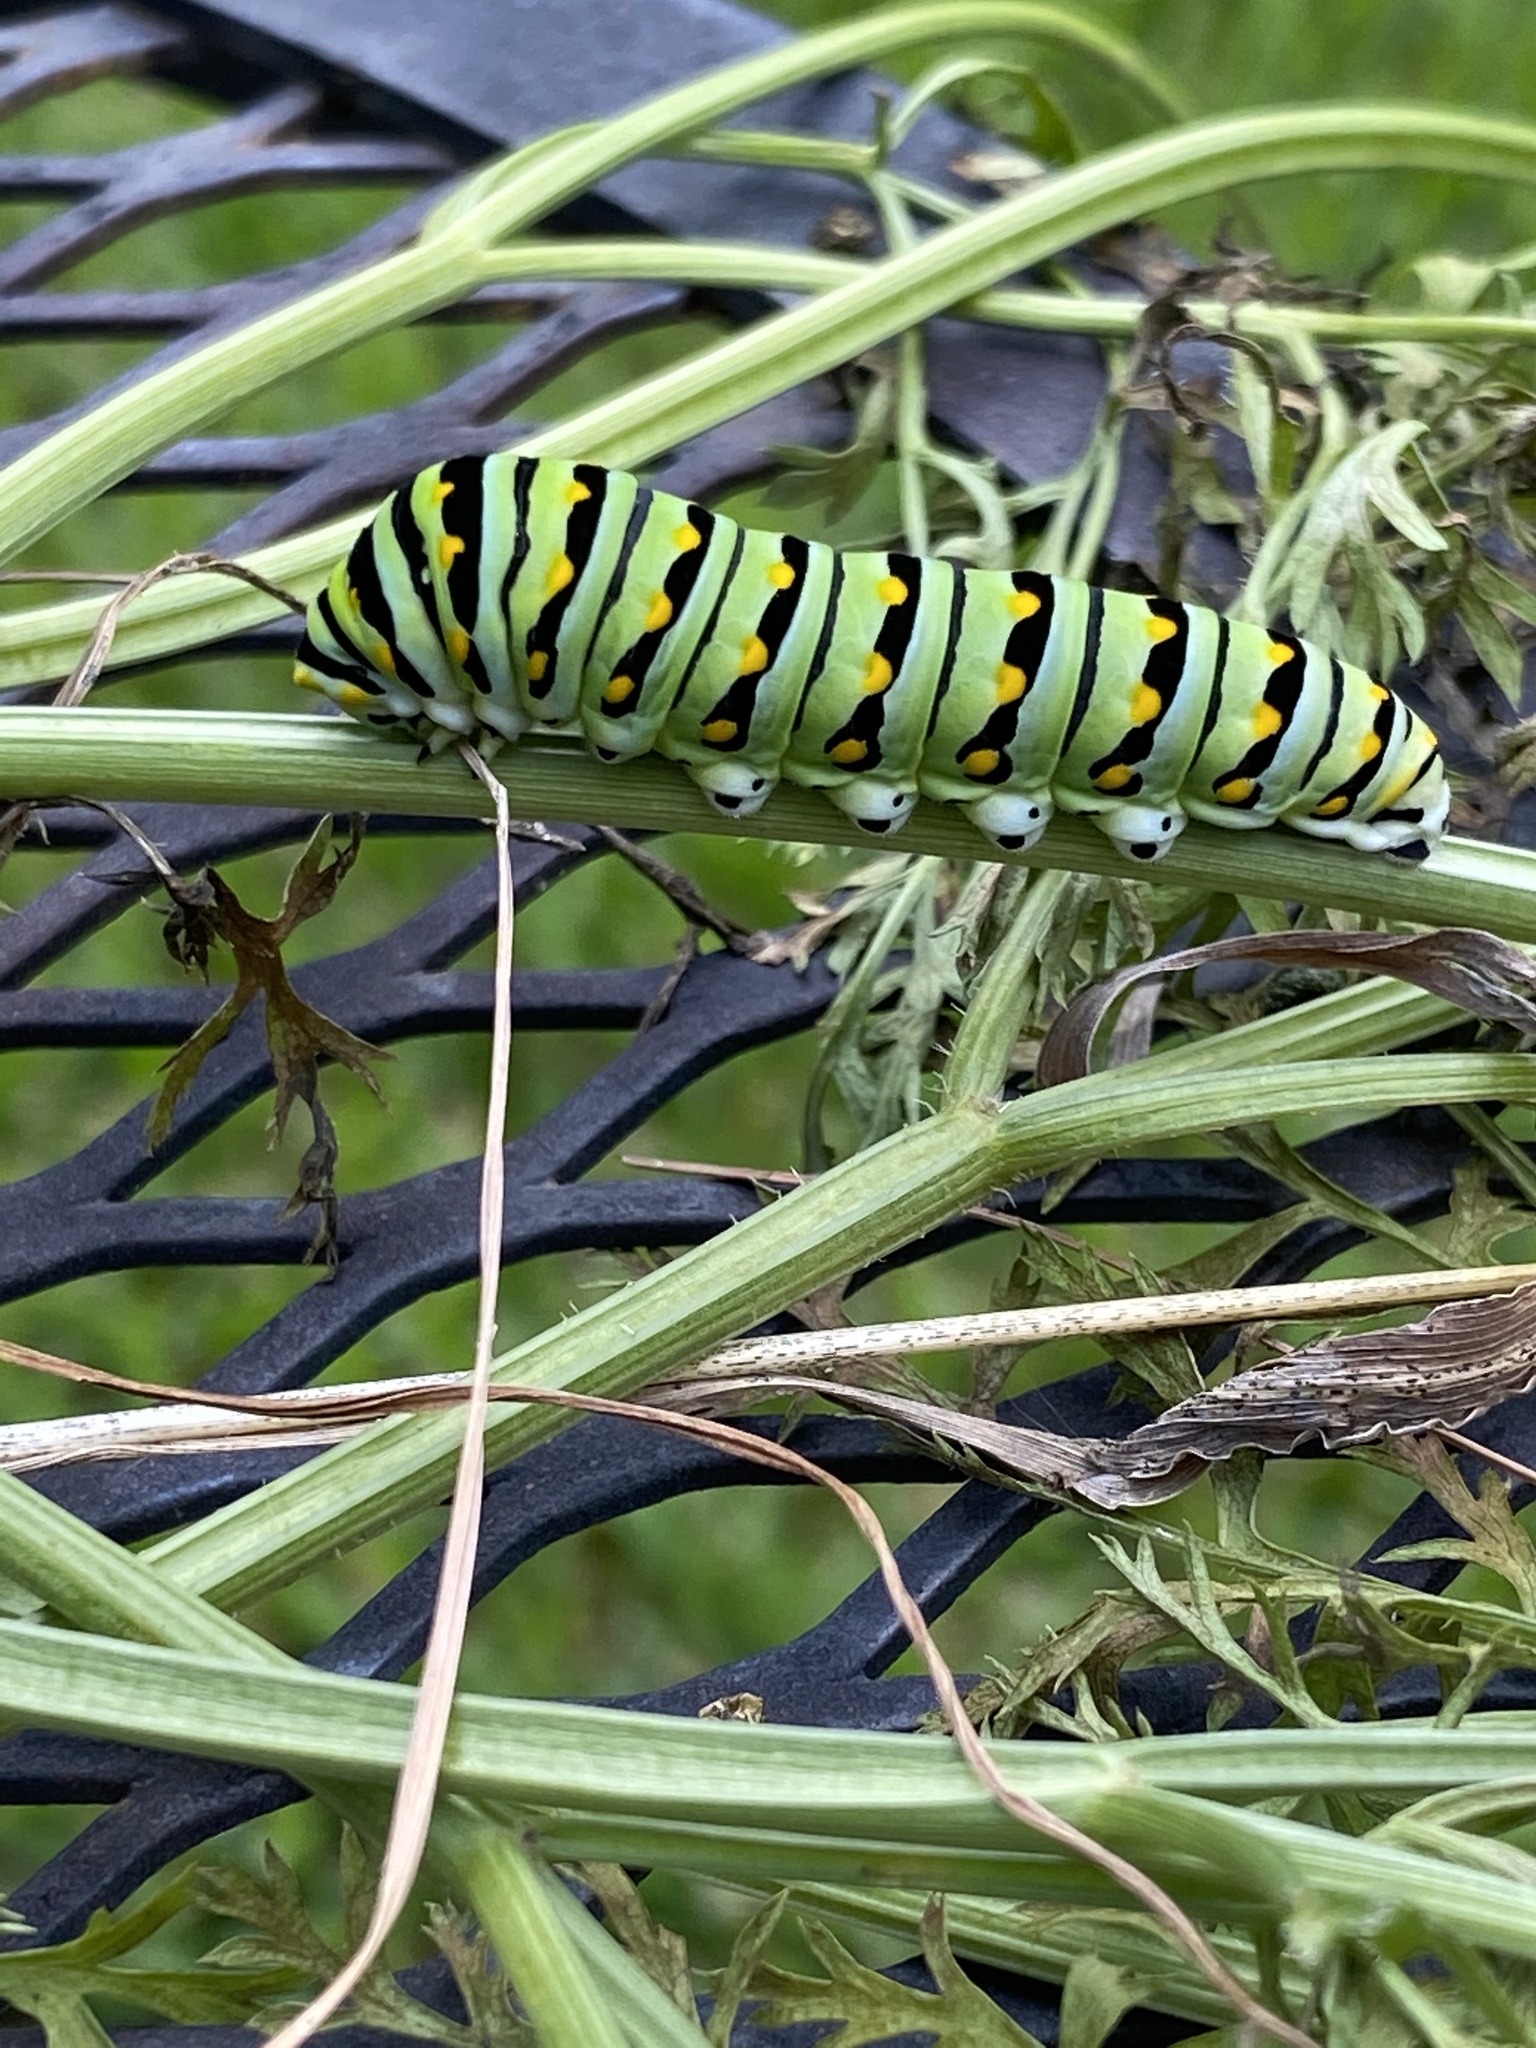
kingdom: Animalia
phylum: Arthropoda
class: Insecta
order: Lepidoptera
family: Papilionidae
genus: Papilio
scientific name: Papilio polyxenes
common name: Black swallowtail
